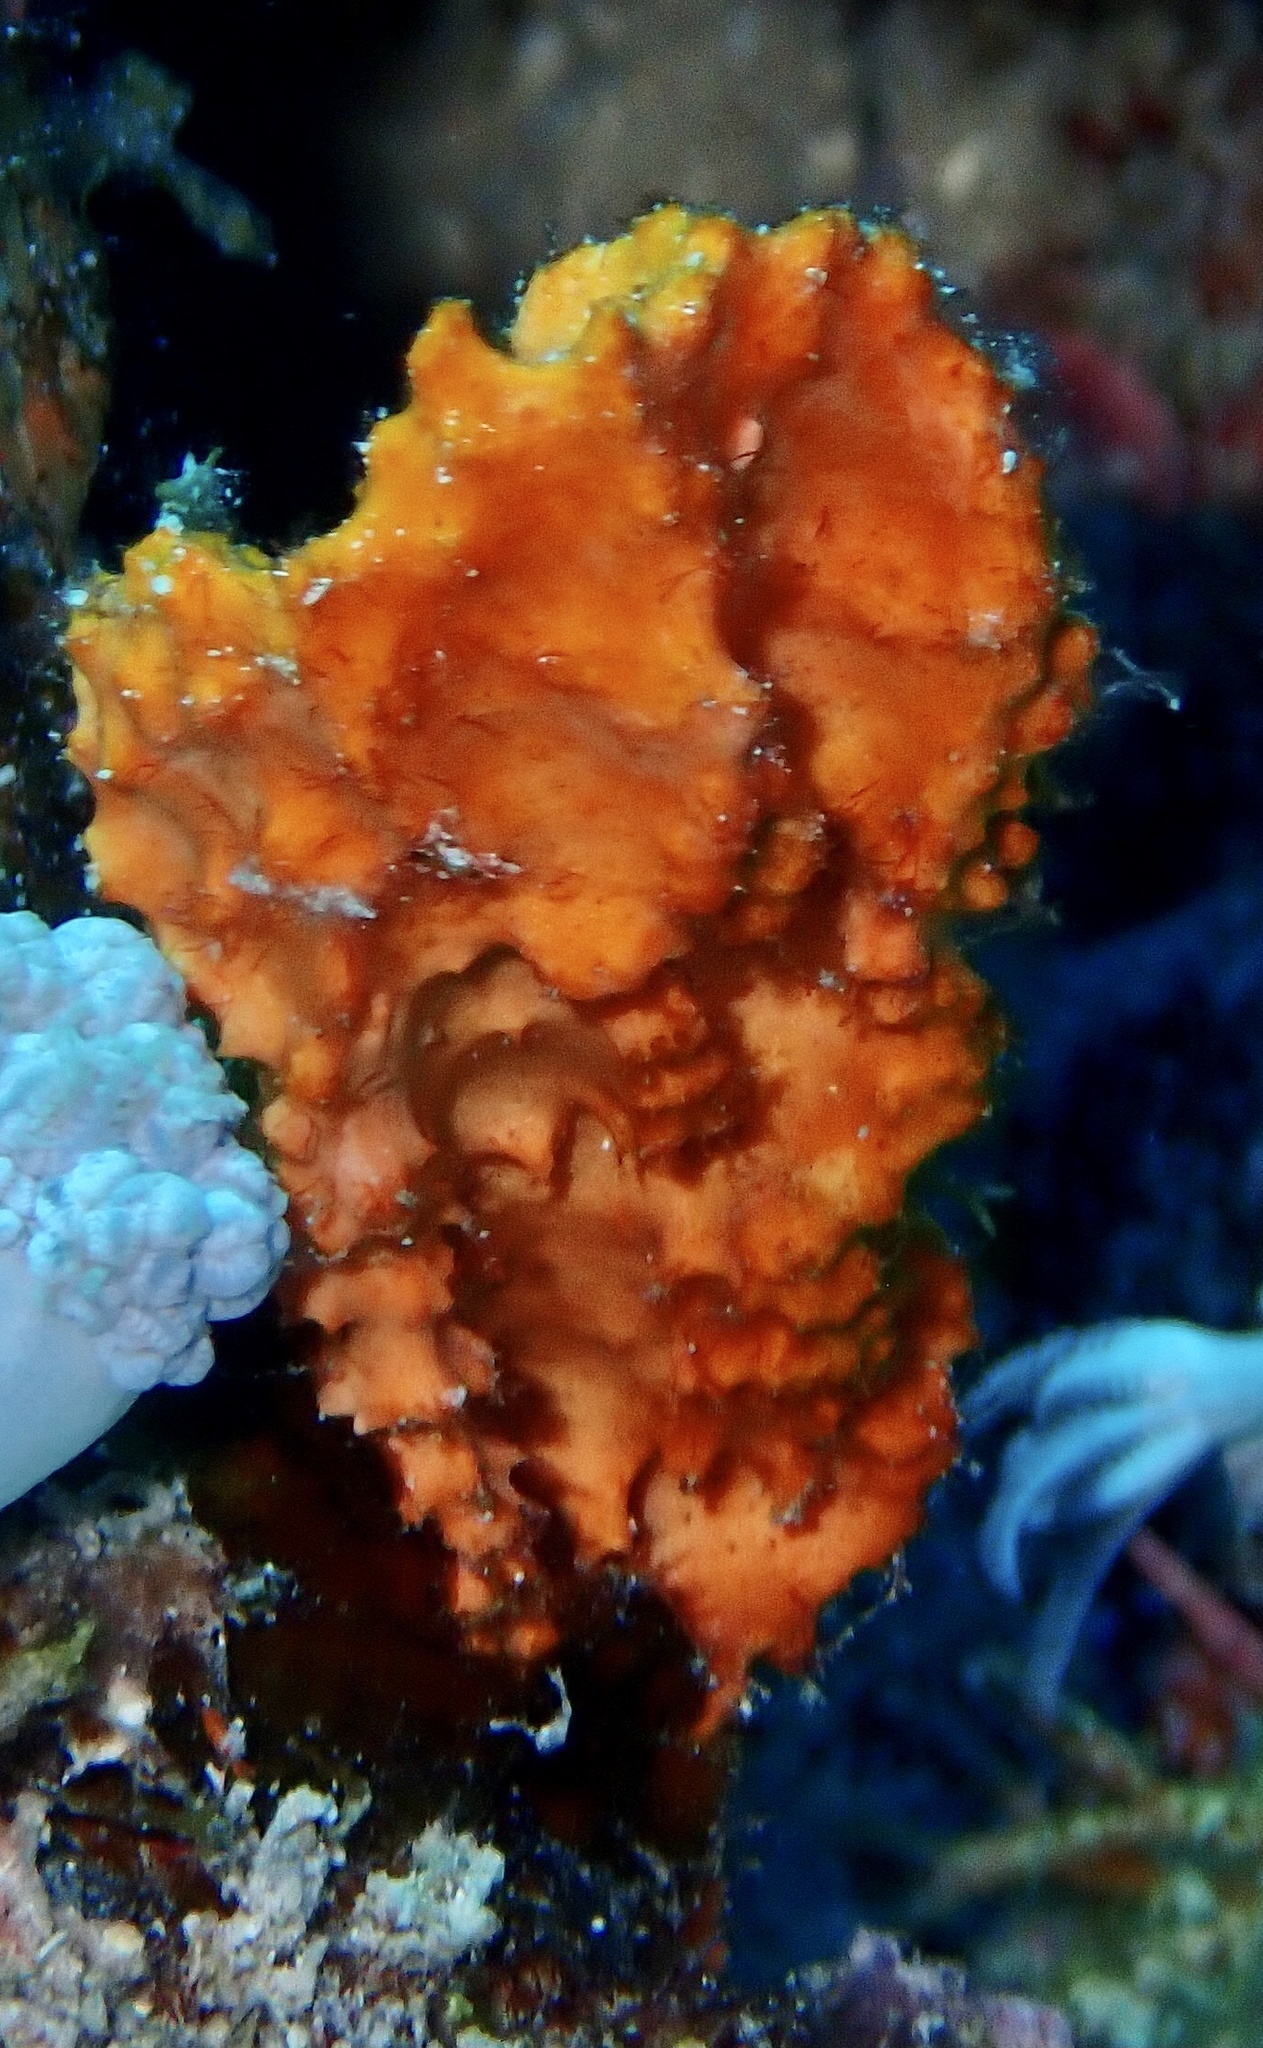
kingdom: Animalia
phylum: Porifera
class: Demospongiae
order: Scopalinida
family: Scopalinidae
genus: Stylissa
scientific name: Stylissa carteri
